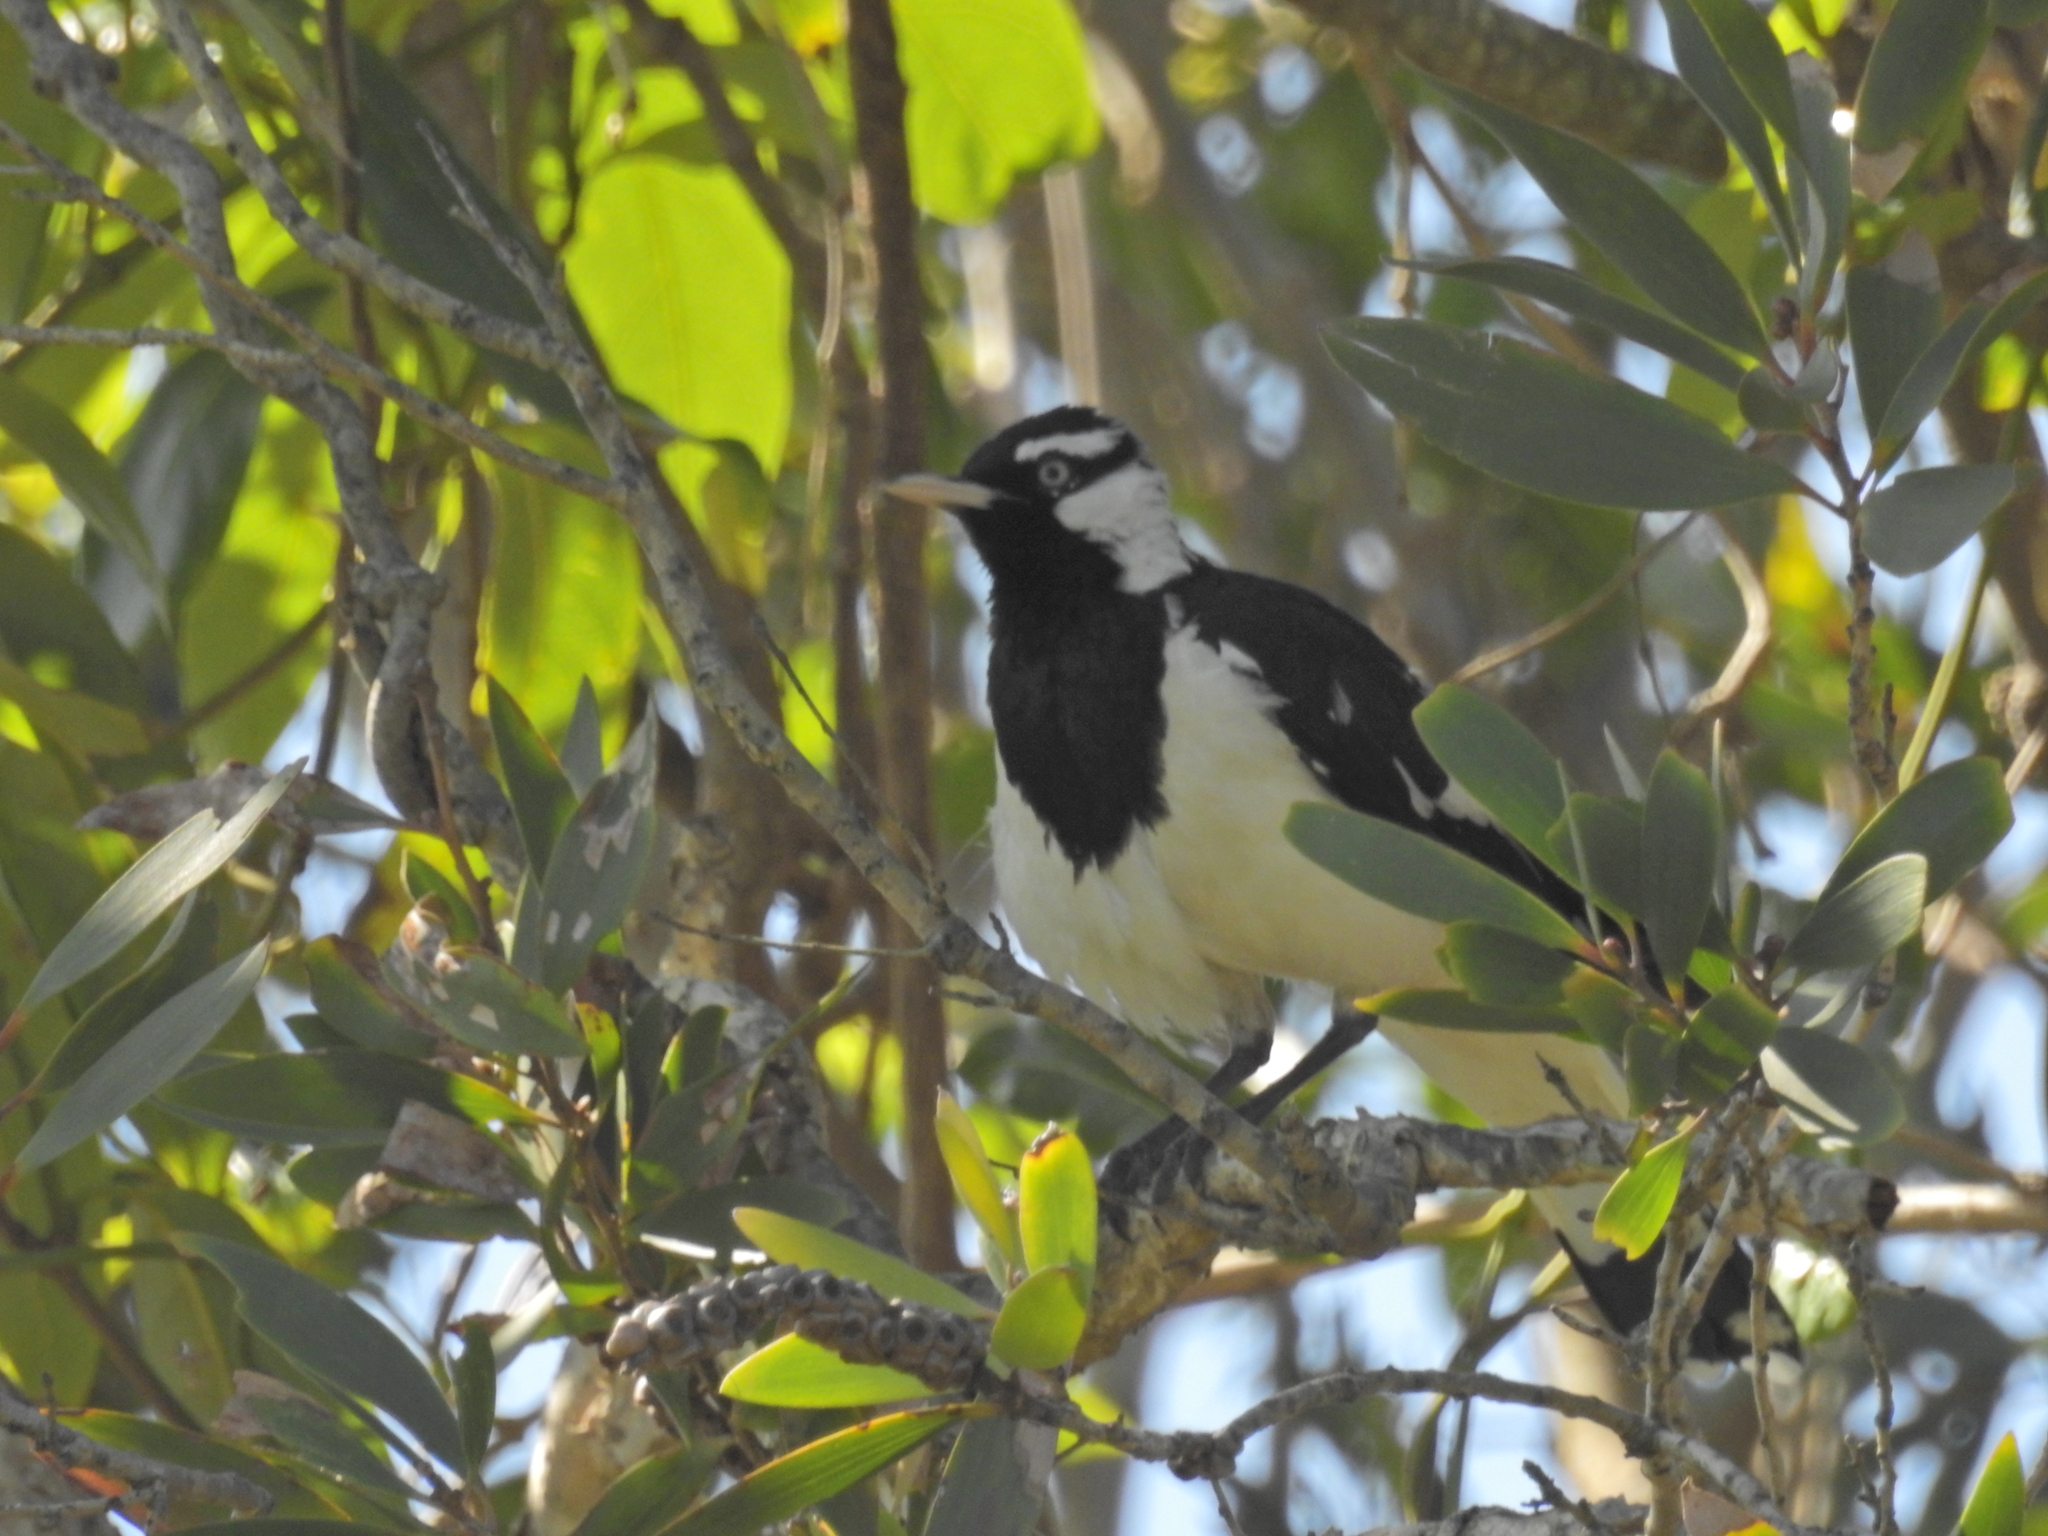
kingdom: Animalia
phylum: Chordata
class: Aves
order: Passeriformes
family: Monarchidae
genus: Grallina
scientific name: Grallina cyanoleuca
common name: Magpie-lark
